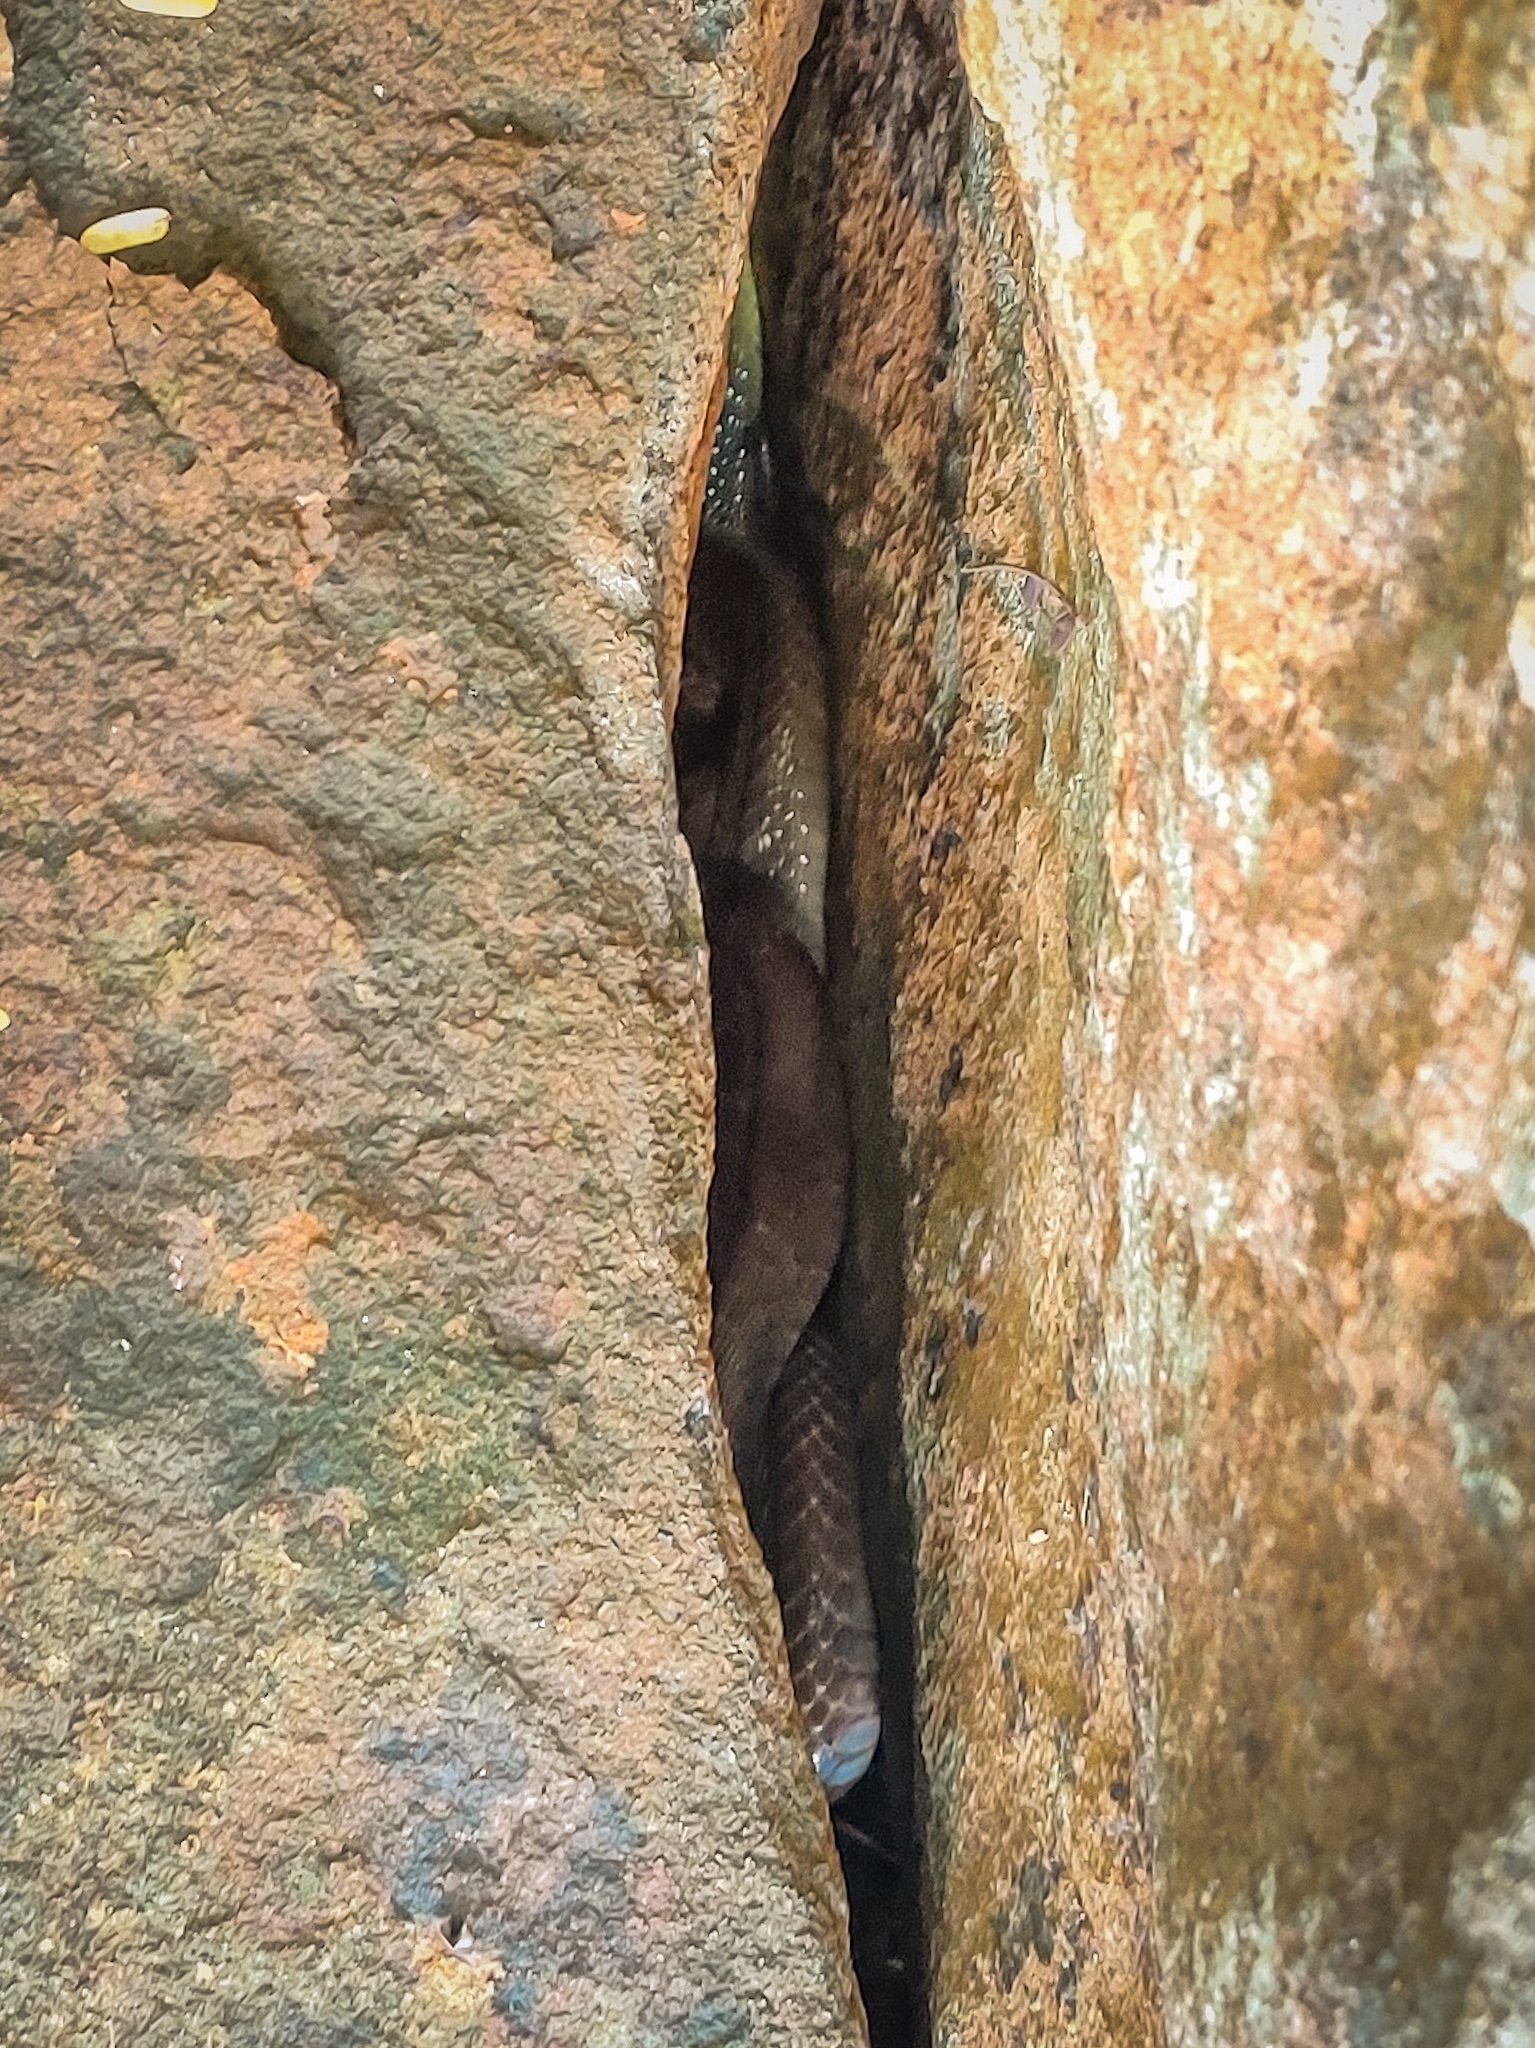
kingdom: Animalia
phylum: Chordata
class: Squamata
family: Elapidae
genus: Naja
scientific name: Naja naja
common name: Indian cobra
